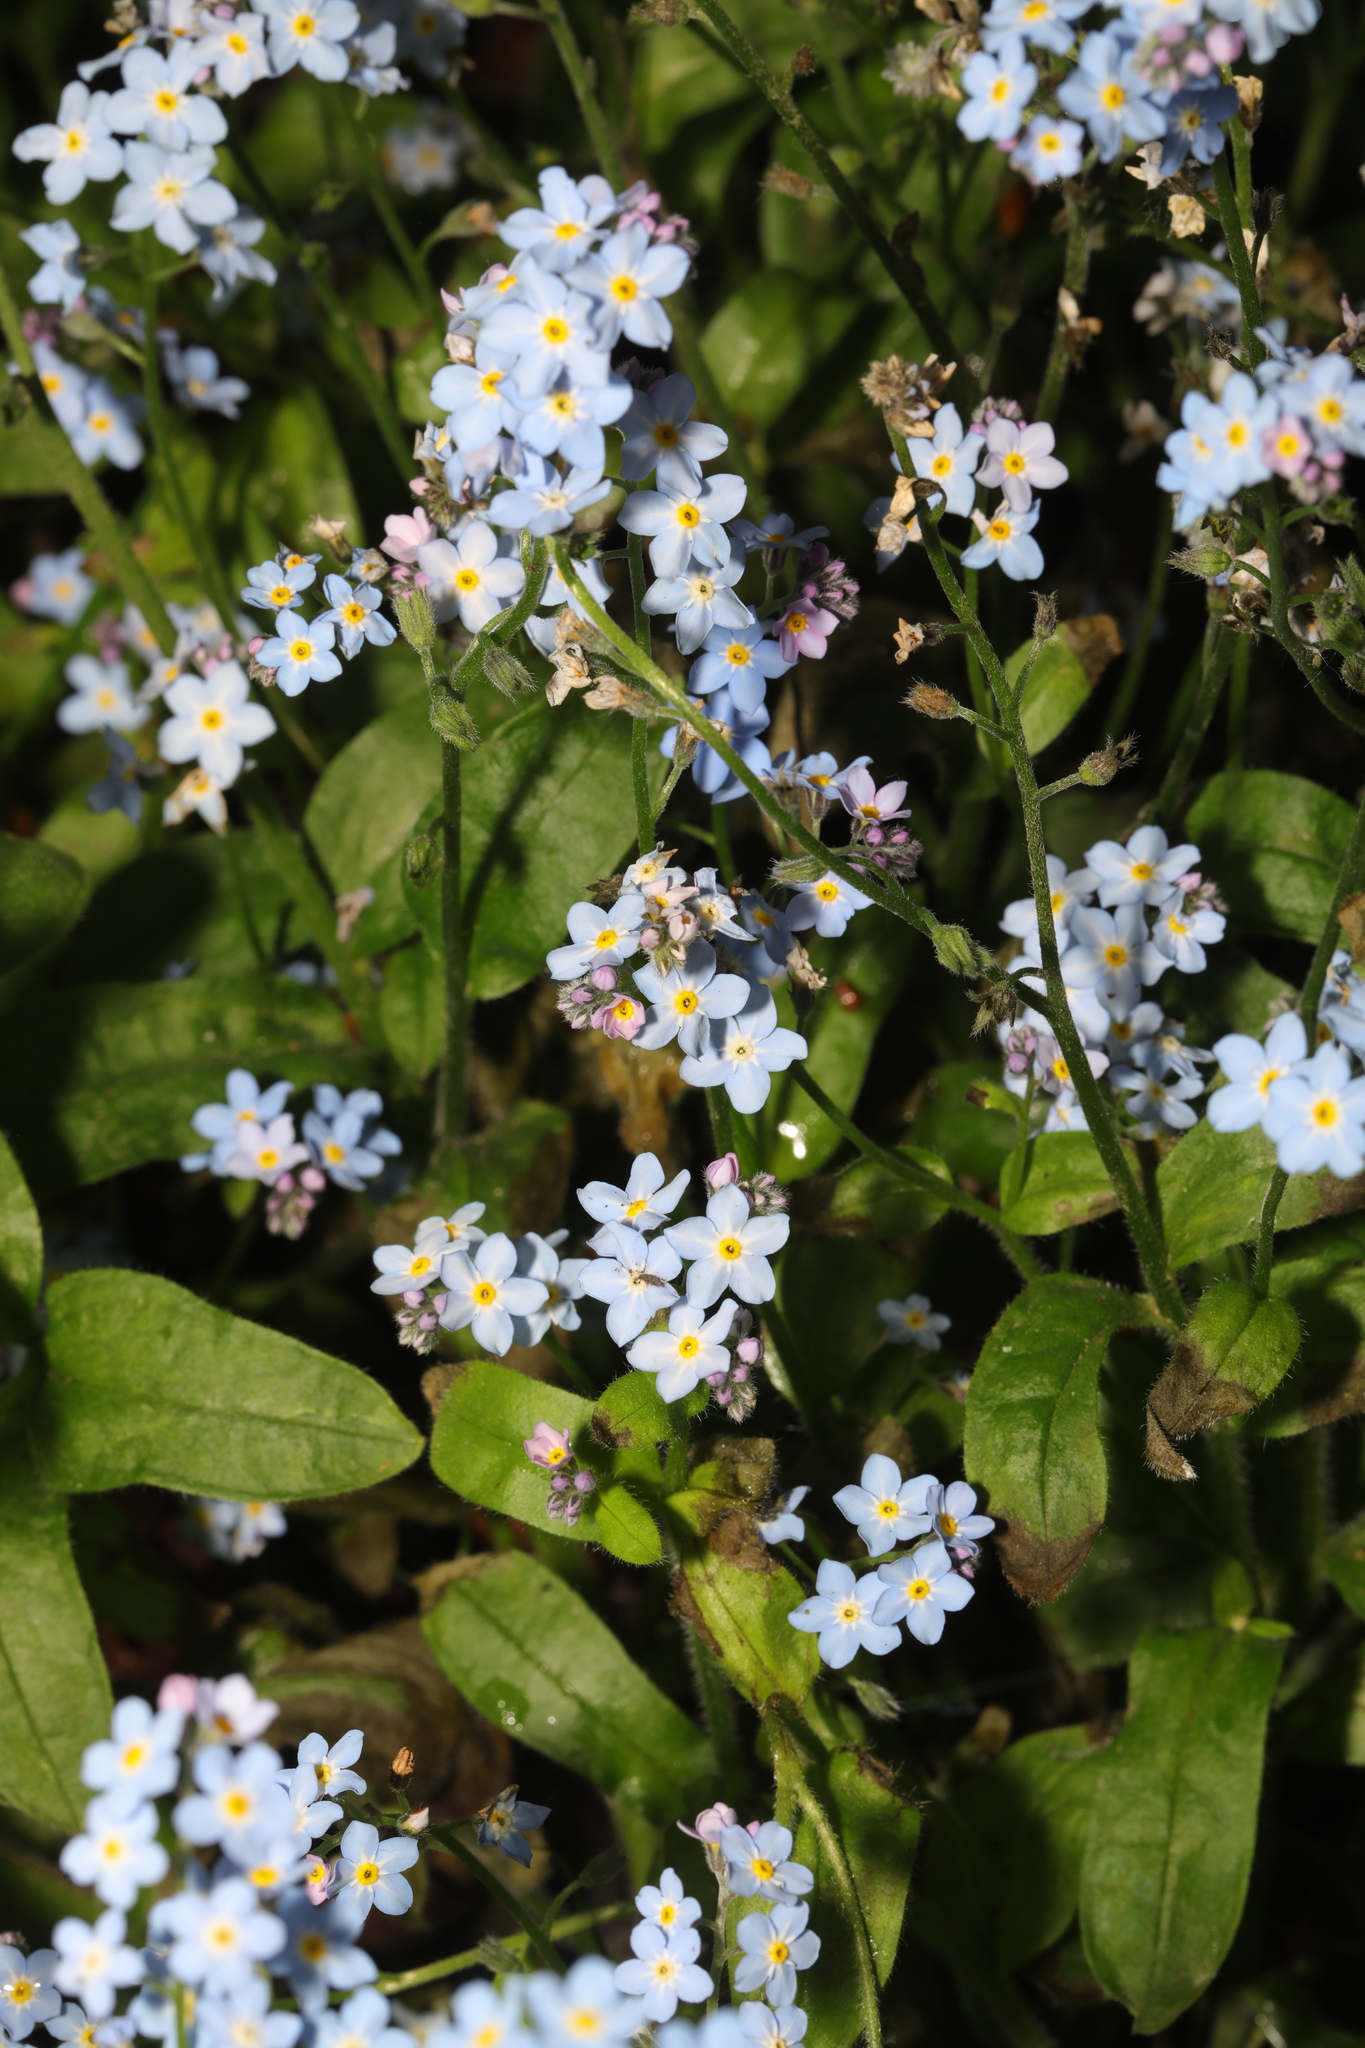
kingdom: Plantae
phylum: Tracheophyta
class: Magnoliopsida
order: Boraginales
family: Boraginaceae
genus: Myosotis
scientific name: Myosotis sylvatica
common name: Wood forget-me-not
